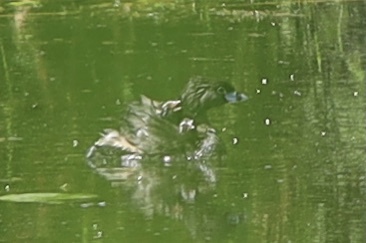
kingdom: Animalia
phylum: Chordata
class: Aves
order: Podicipediformes
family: Podicipedidae
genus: Podilymbus
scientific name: Podilymbus podiceps
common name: Pied-billed grebe
